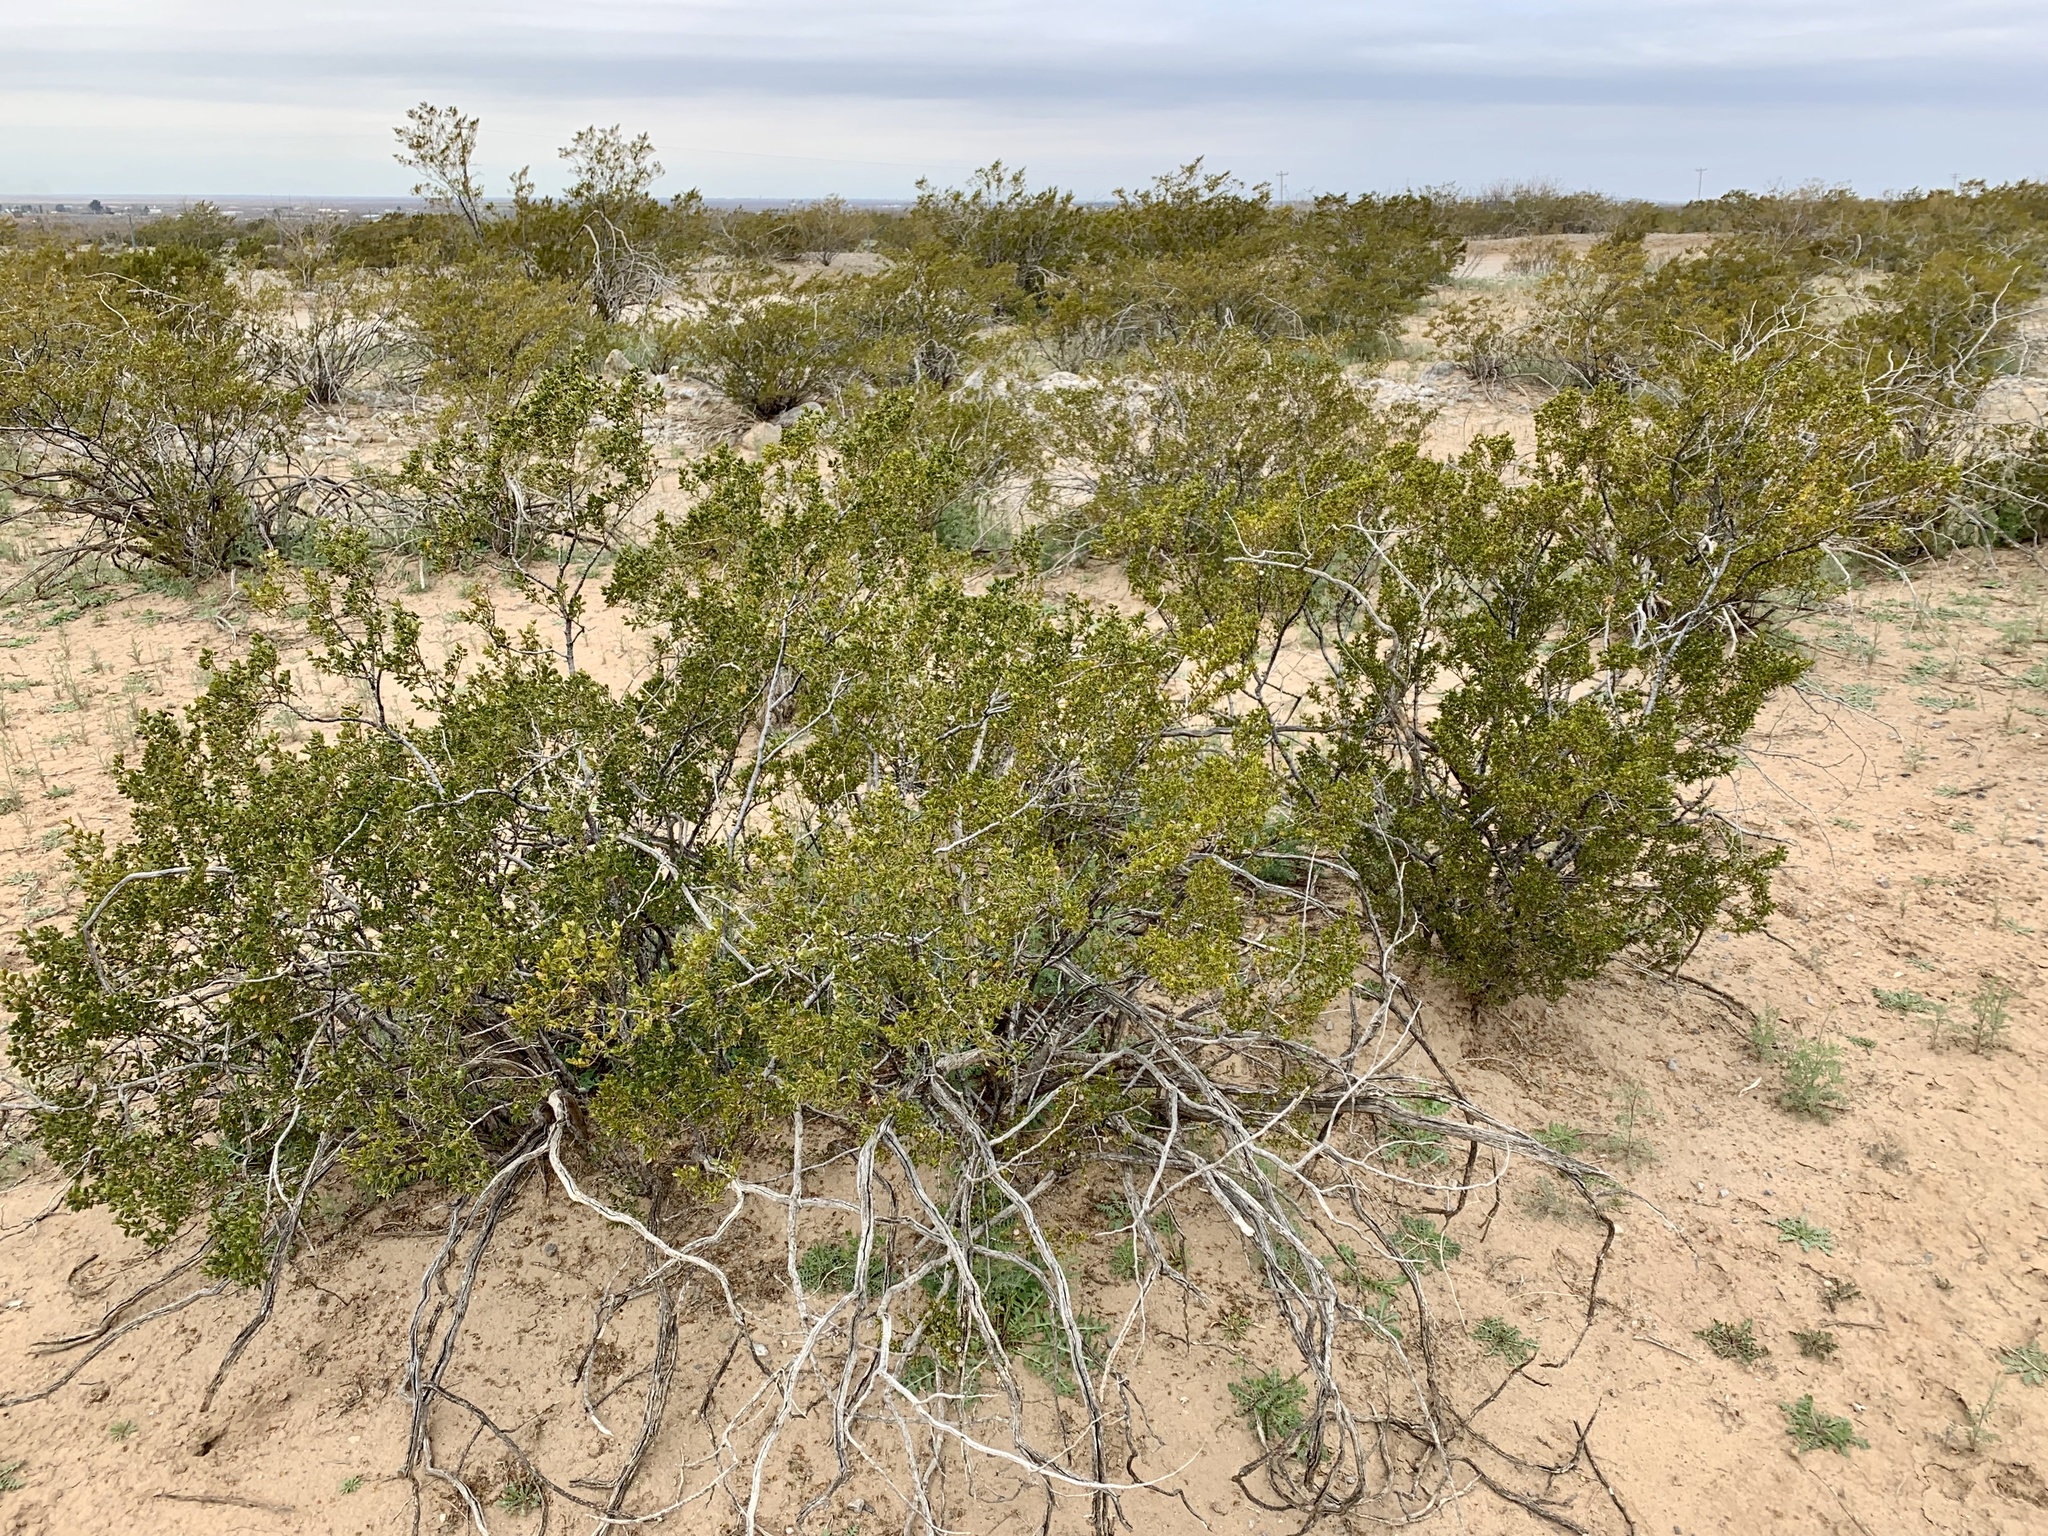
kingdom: Plantae
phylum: Tracheophyta
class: Magnoliopsida
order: Zygophyllales
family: Zygophyllaceae
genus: Larrea
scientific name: Larrea tridentata
